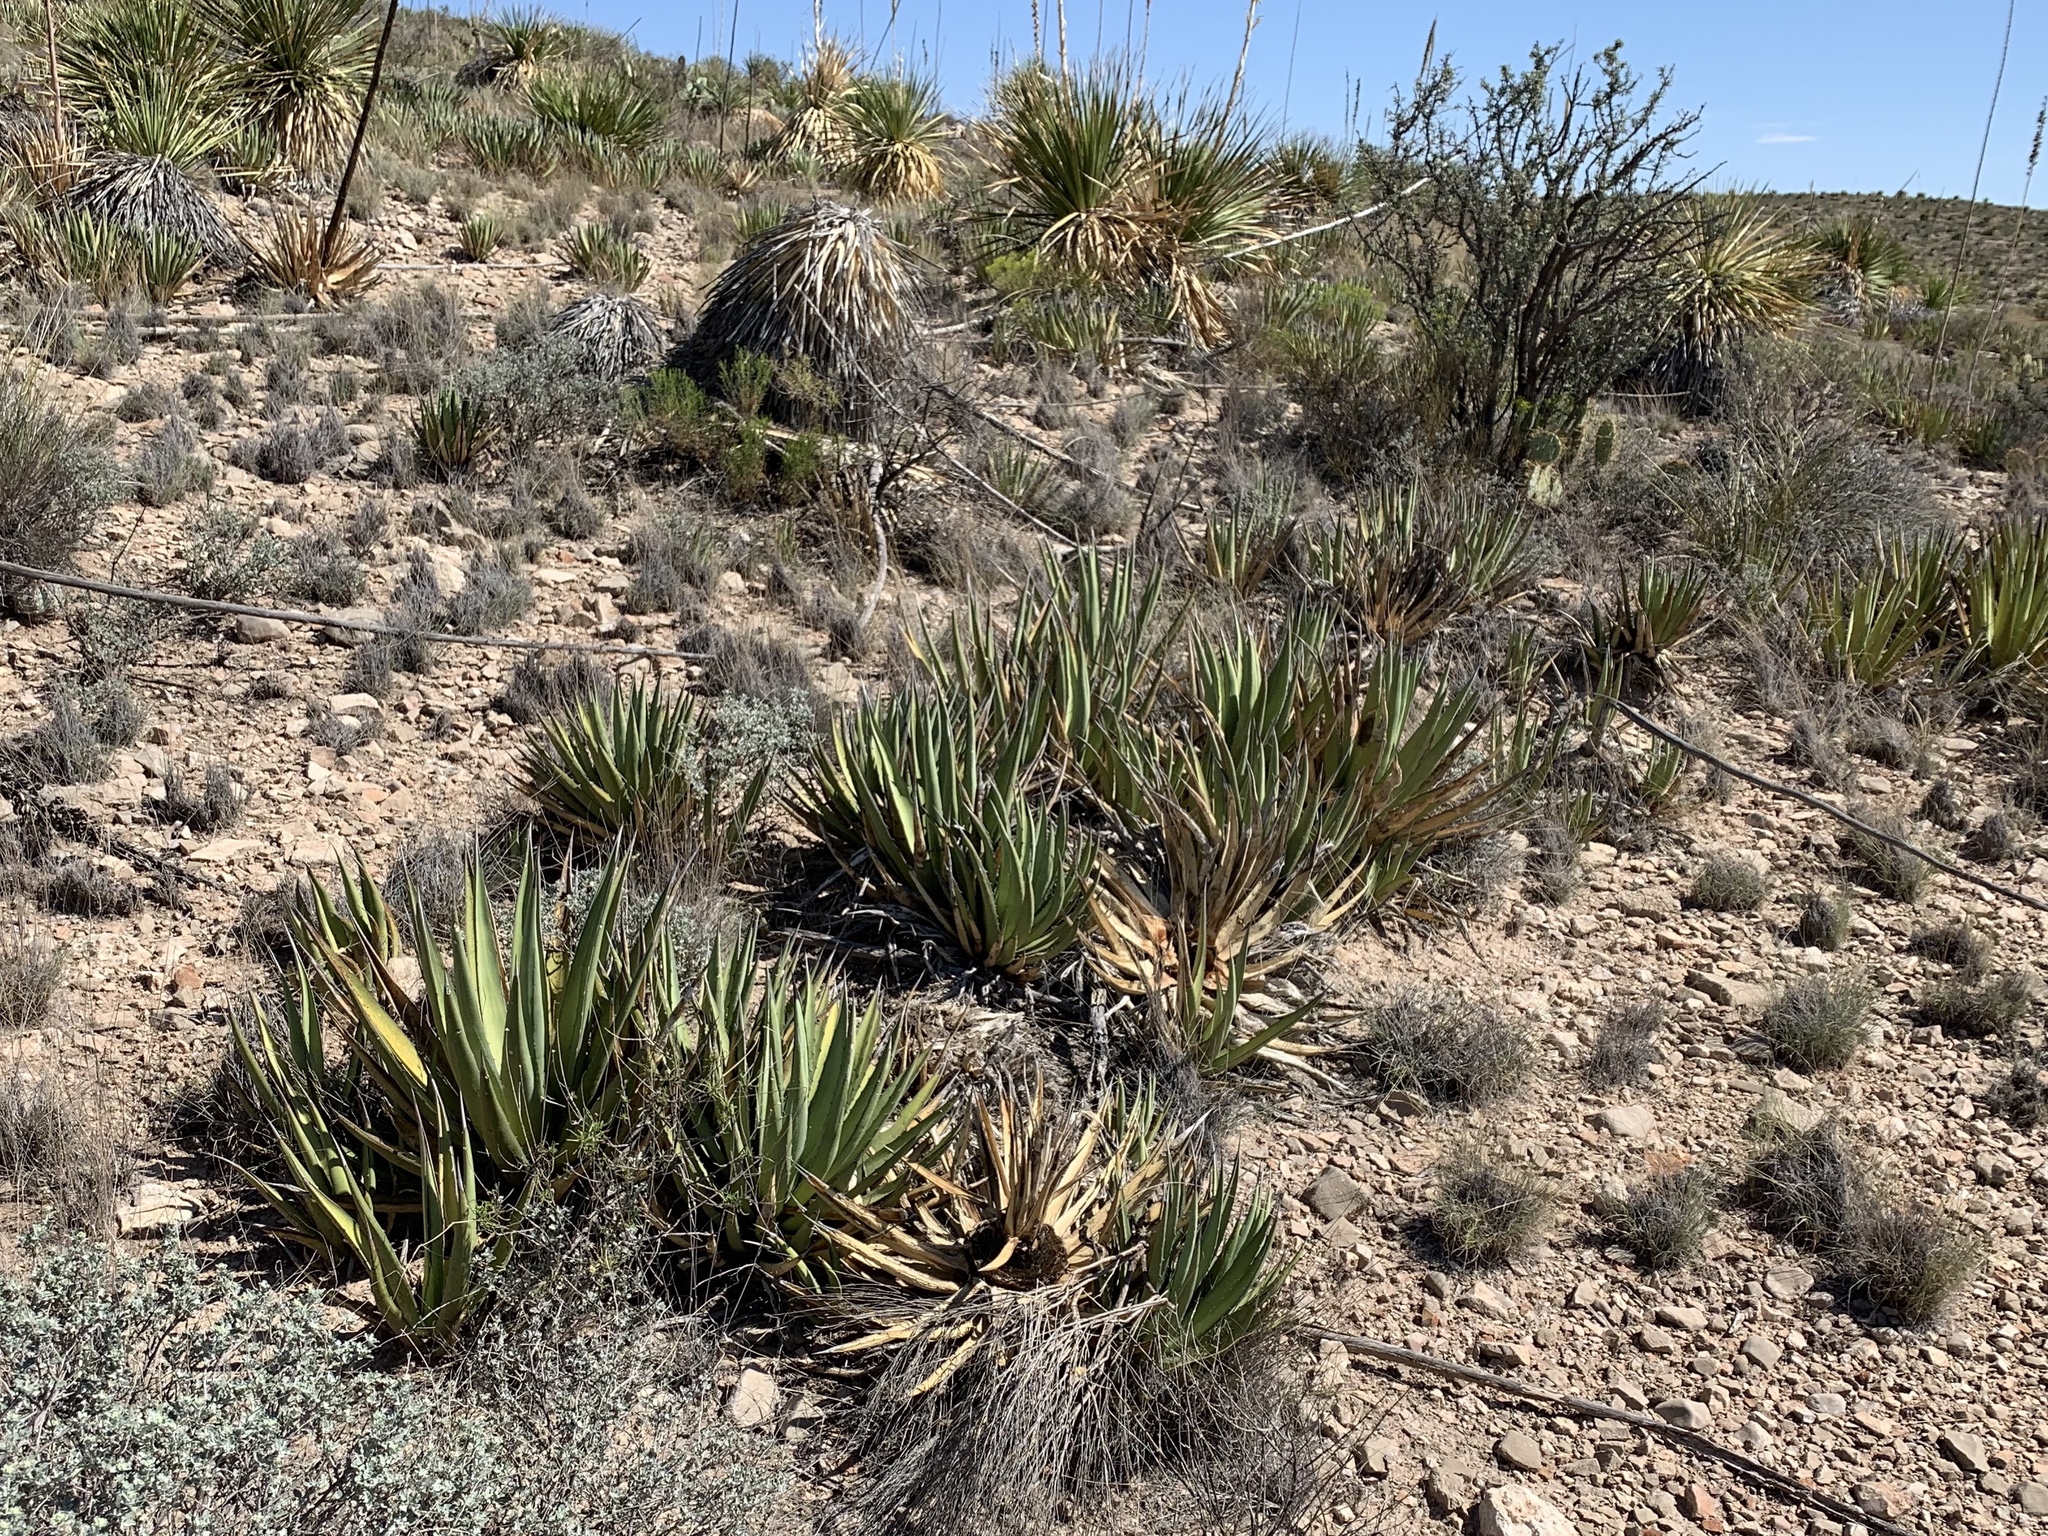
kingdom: Plantae
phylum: Tracheophyta
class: Liliopsida
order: Asparagales
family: Asparagaceae
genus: Agave
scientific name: Agave lechuguilla
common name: Lecheguilla agave
